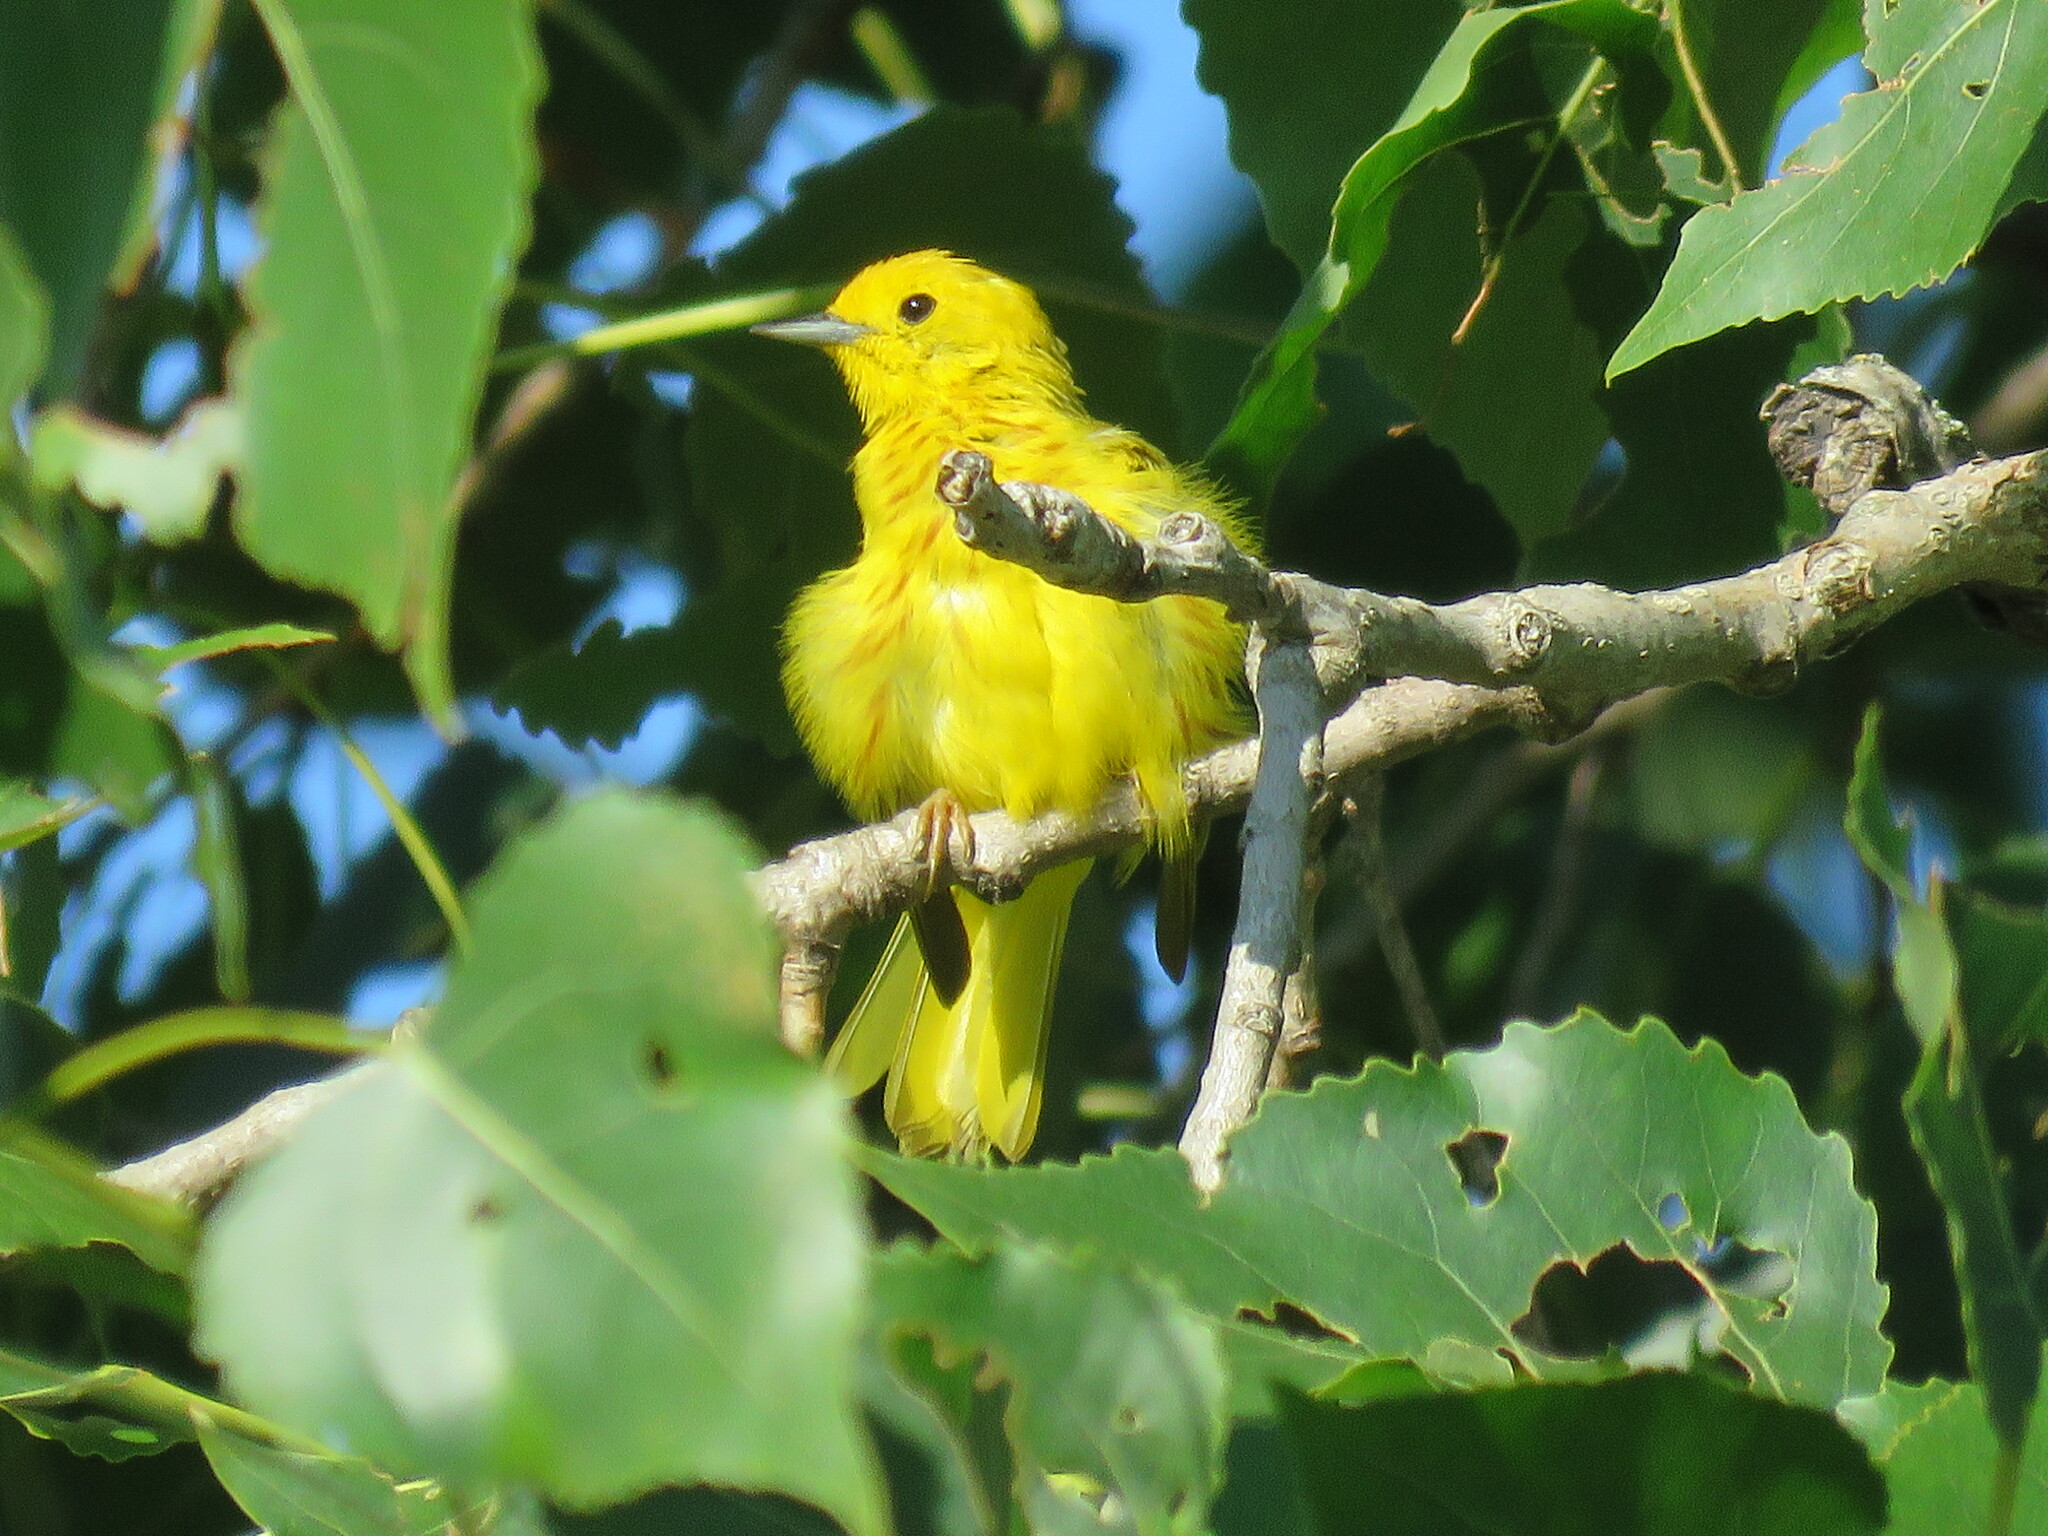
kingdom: Animalia
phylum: Chordata
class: Aves
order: Passeriformes
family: Parulidae
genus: Setophaga
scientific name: Setophaga petechia
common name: Yellow warbler
